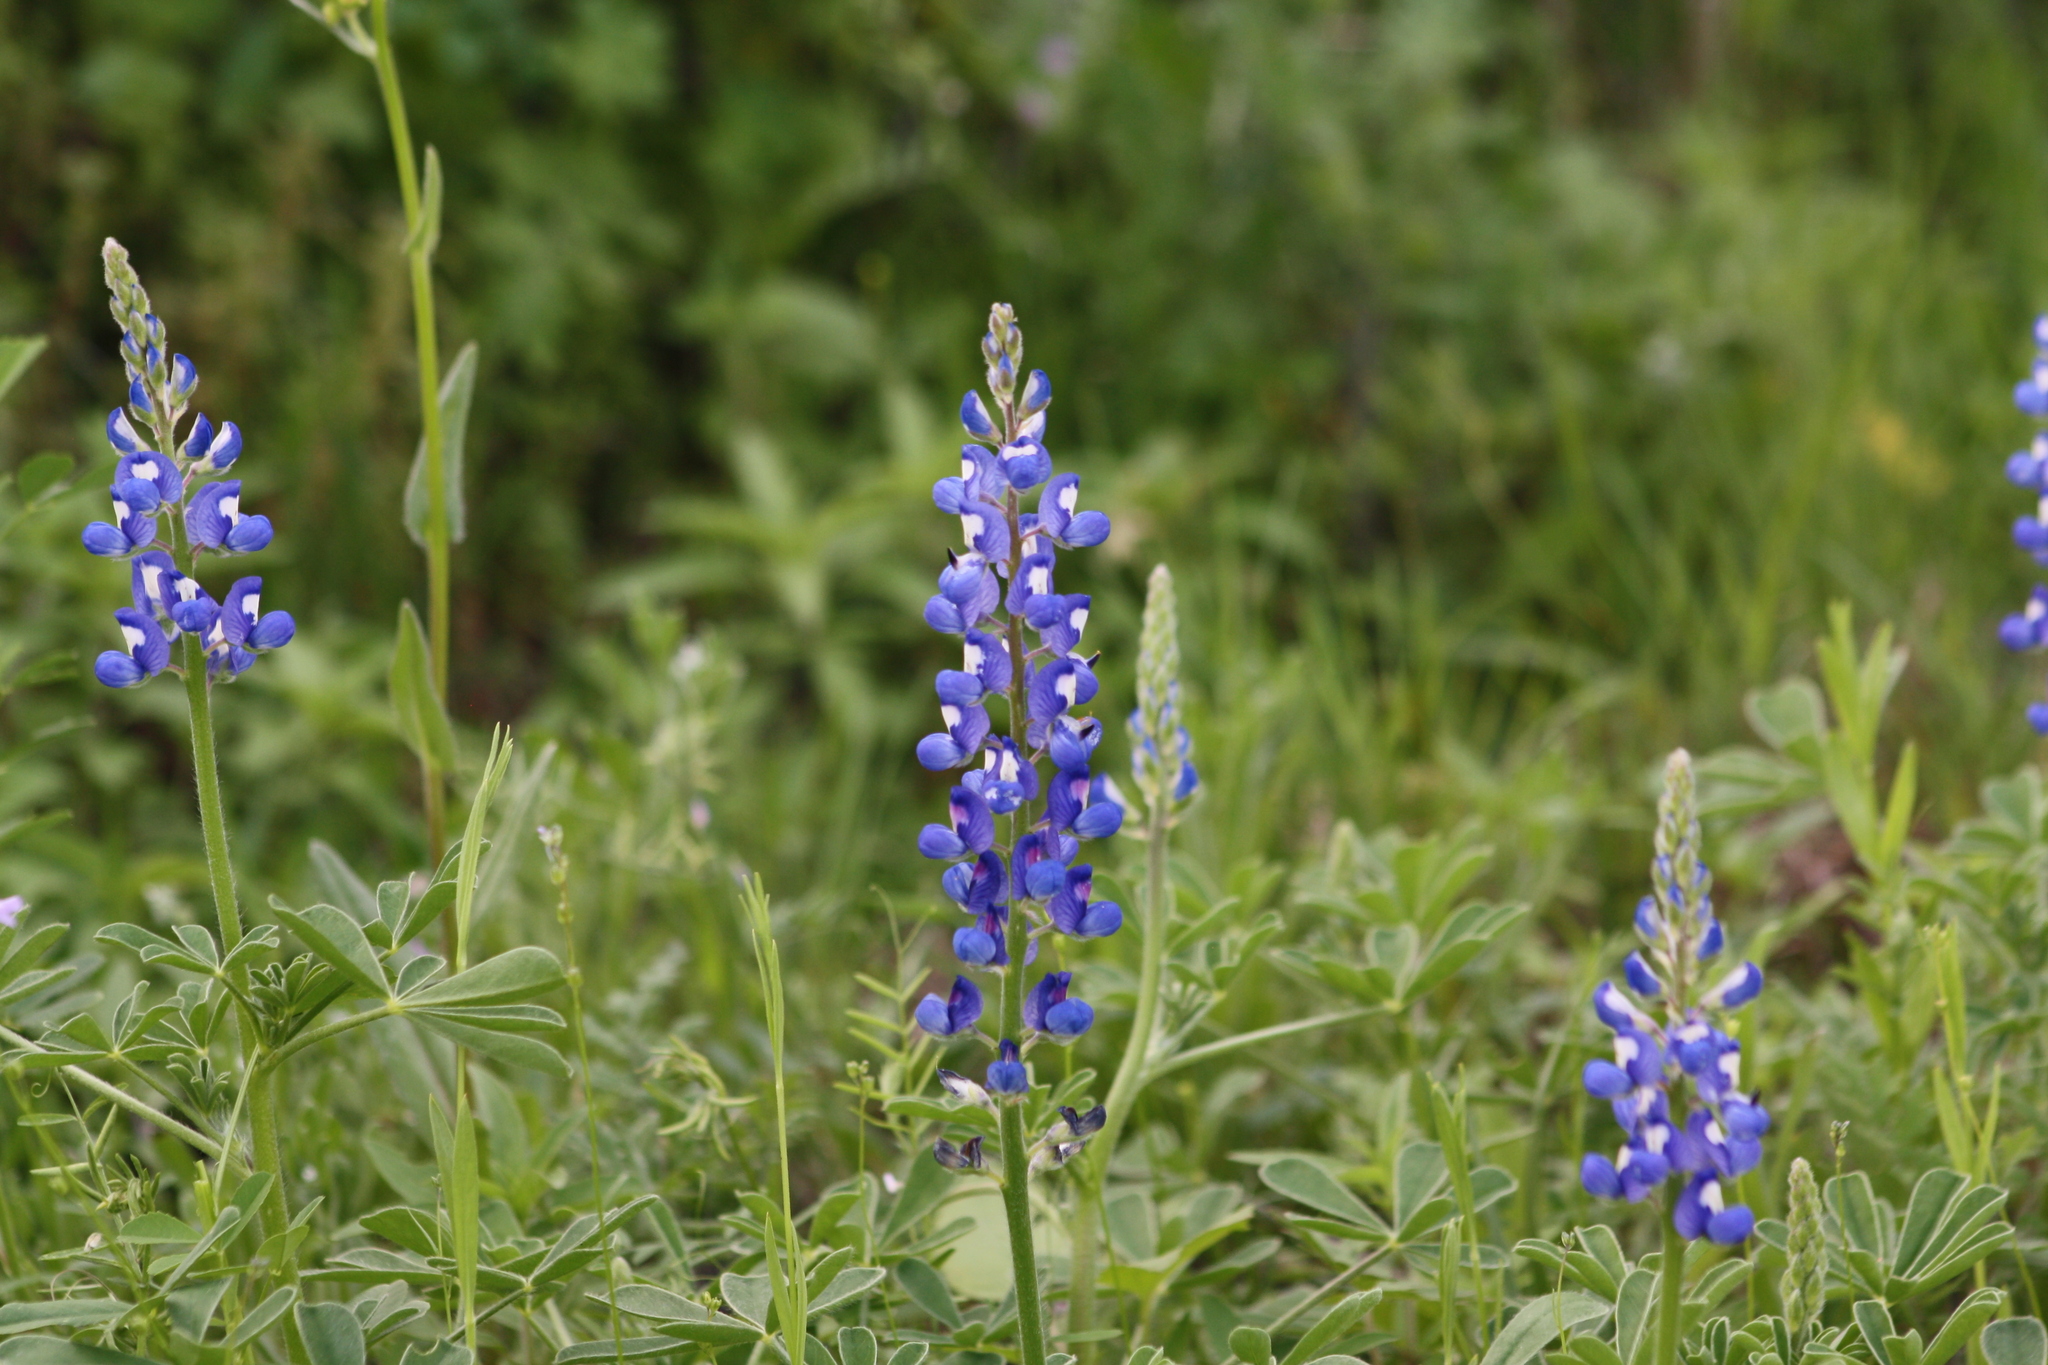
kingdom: Plantae
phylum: Tracheophyta
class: Magnoliopsida
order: Fabales
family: Fabaceae
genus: Lupinus
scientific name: Lupinus subcarnosus
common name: Texas bluebonnet
